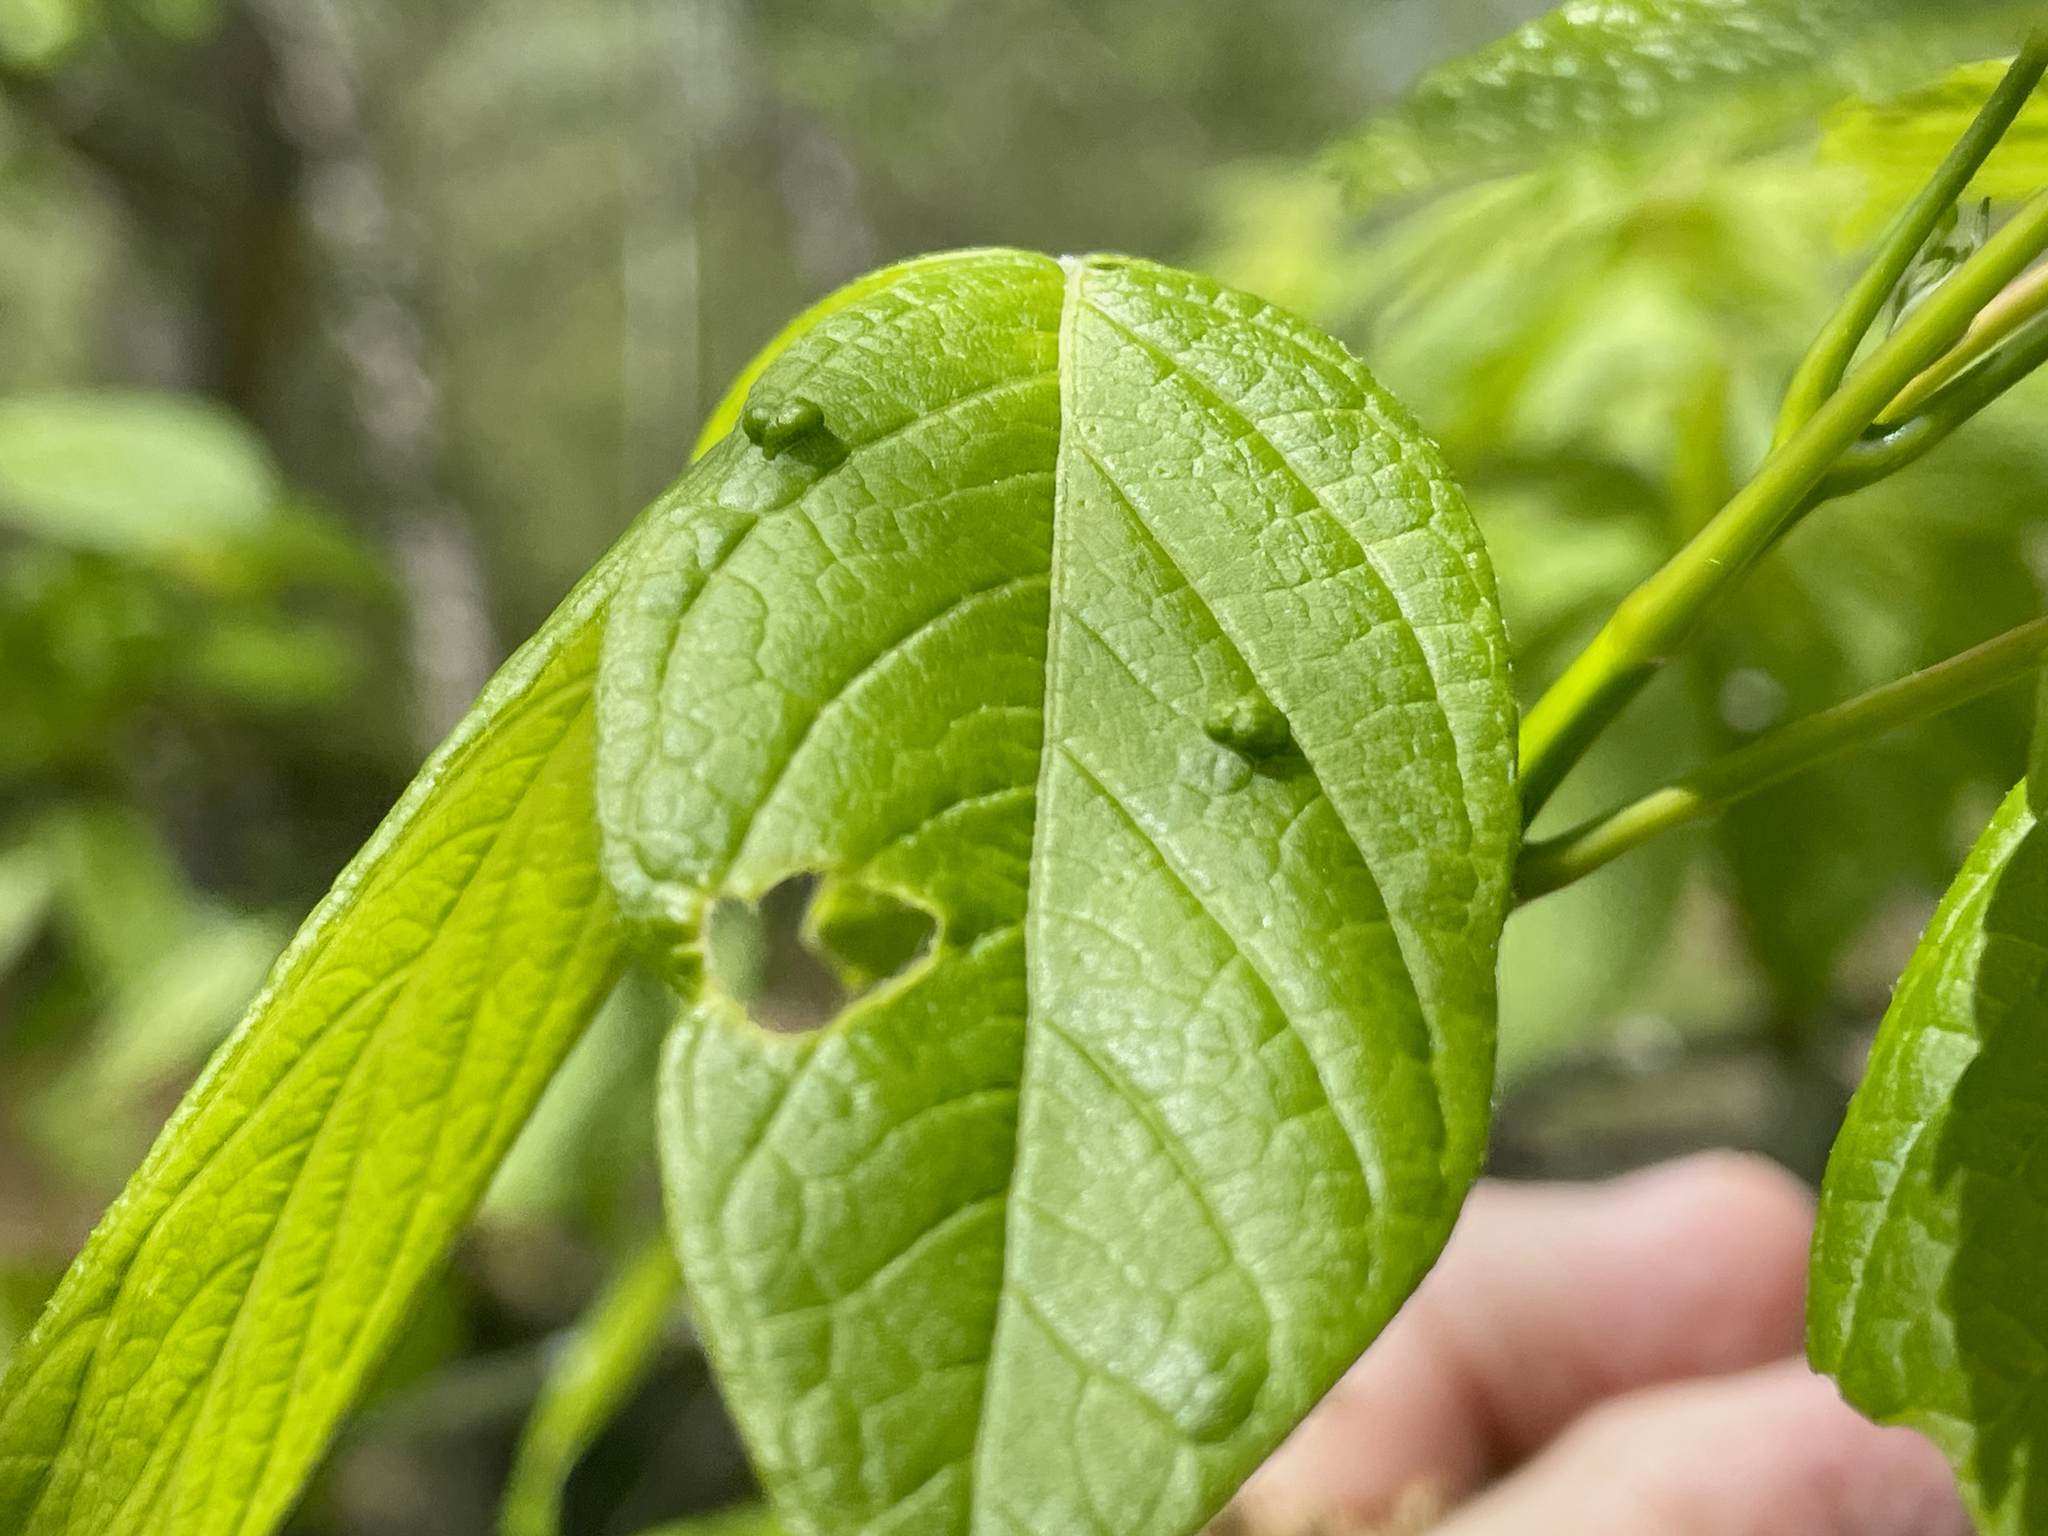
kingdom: Animalia
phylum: Arthropoda
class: Arachnida
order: Trombidiformes
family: Eriophyidae
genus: Aceria
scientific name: Aceria
